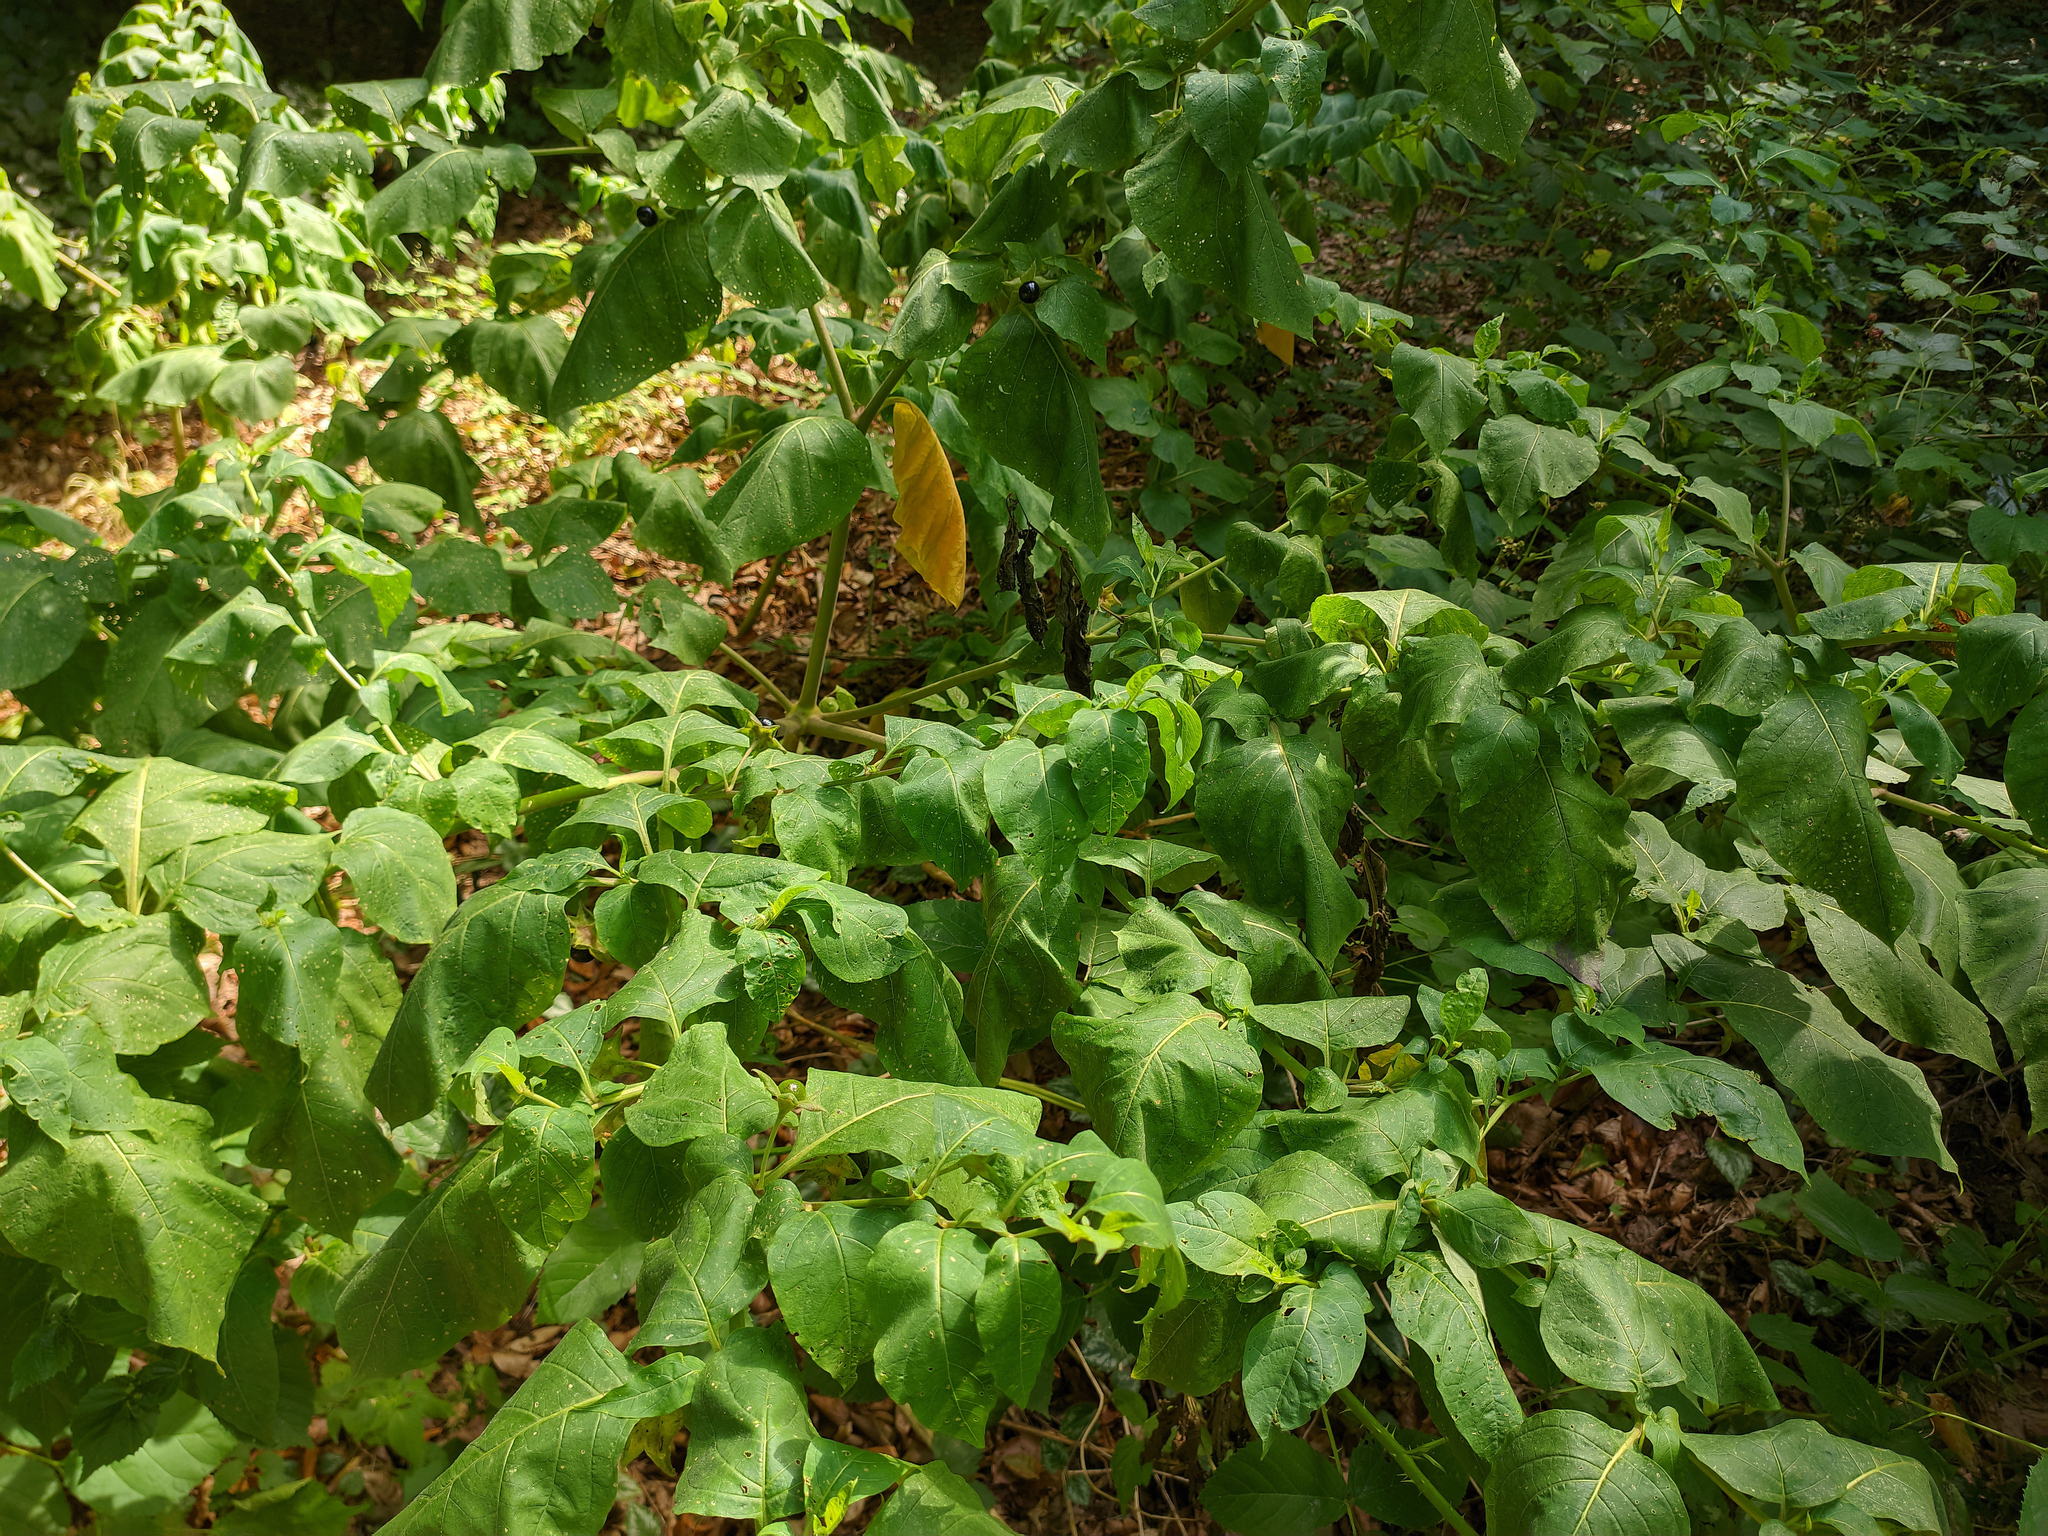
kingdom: Plantae
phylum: Tracheophyta
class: Magnoliopsida
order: Solanales
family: Solanaceae
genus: Atropa
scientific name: Atropa belladonna
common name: Deadly nightshade
